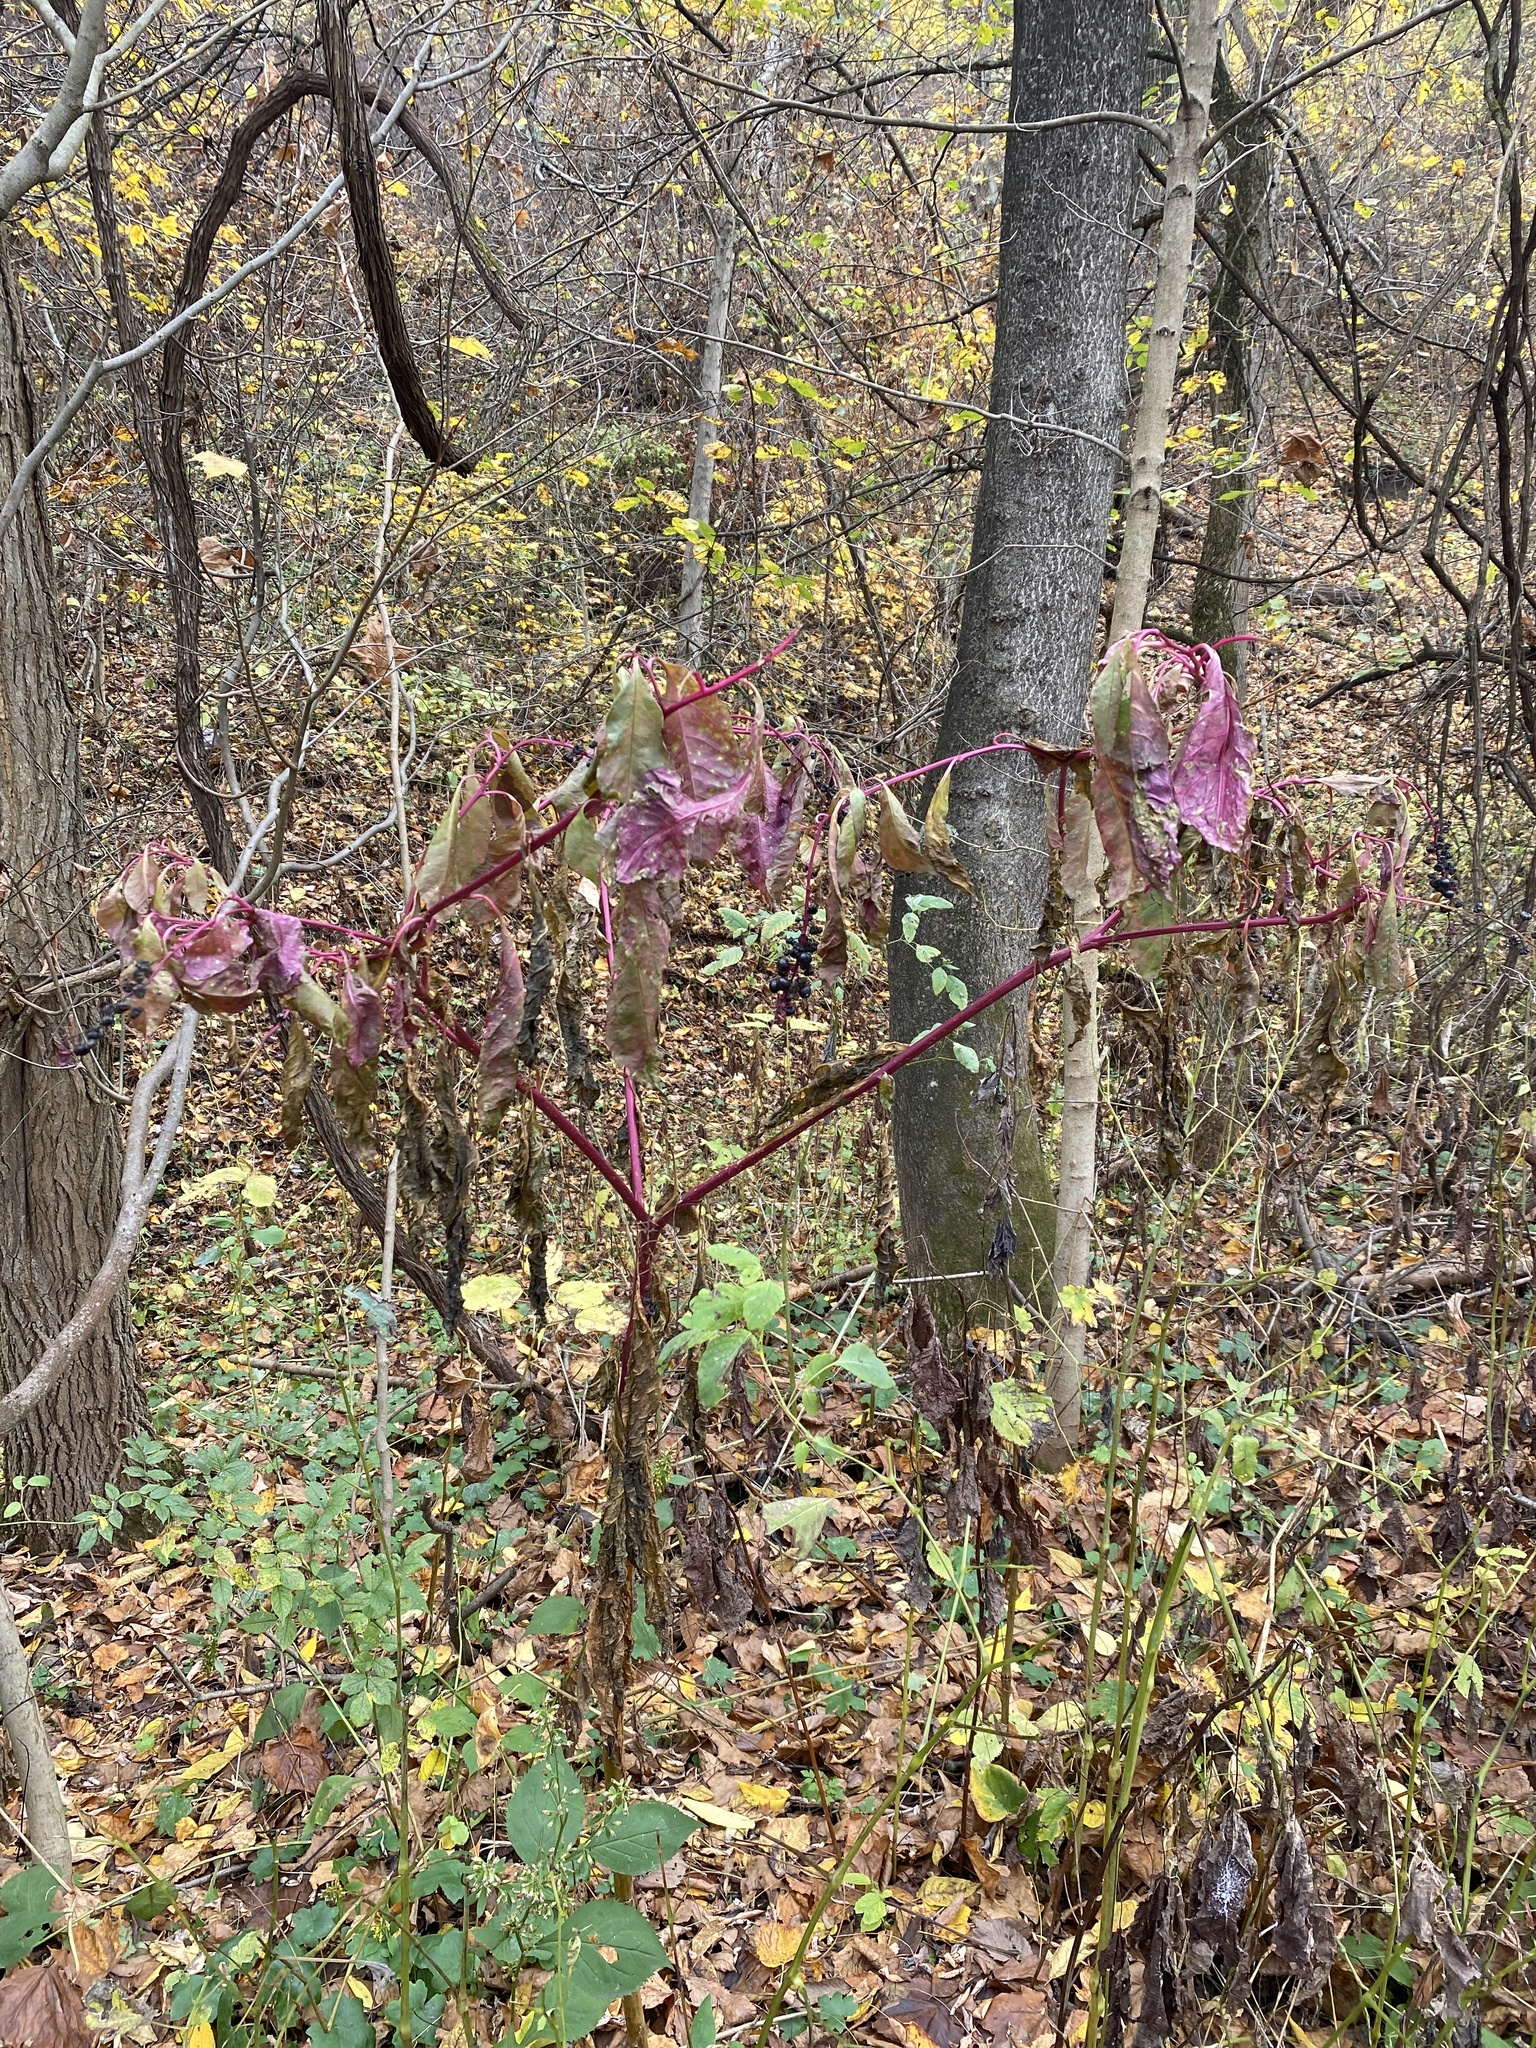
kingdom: Plantae
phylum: Tracheophyta
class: Magnoliopsida
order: Caryophyllales
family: Phytolaccaceae
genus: Phytolacca
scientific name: Phytolacca americana
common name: American pokeweed
